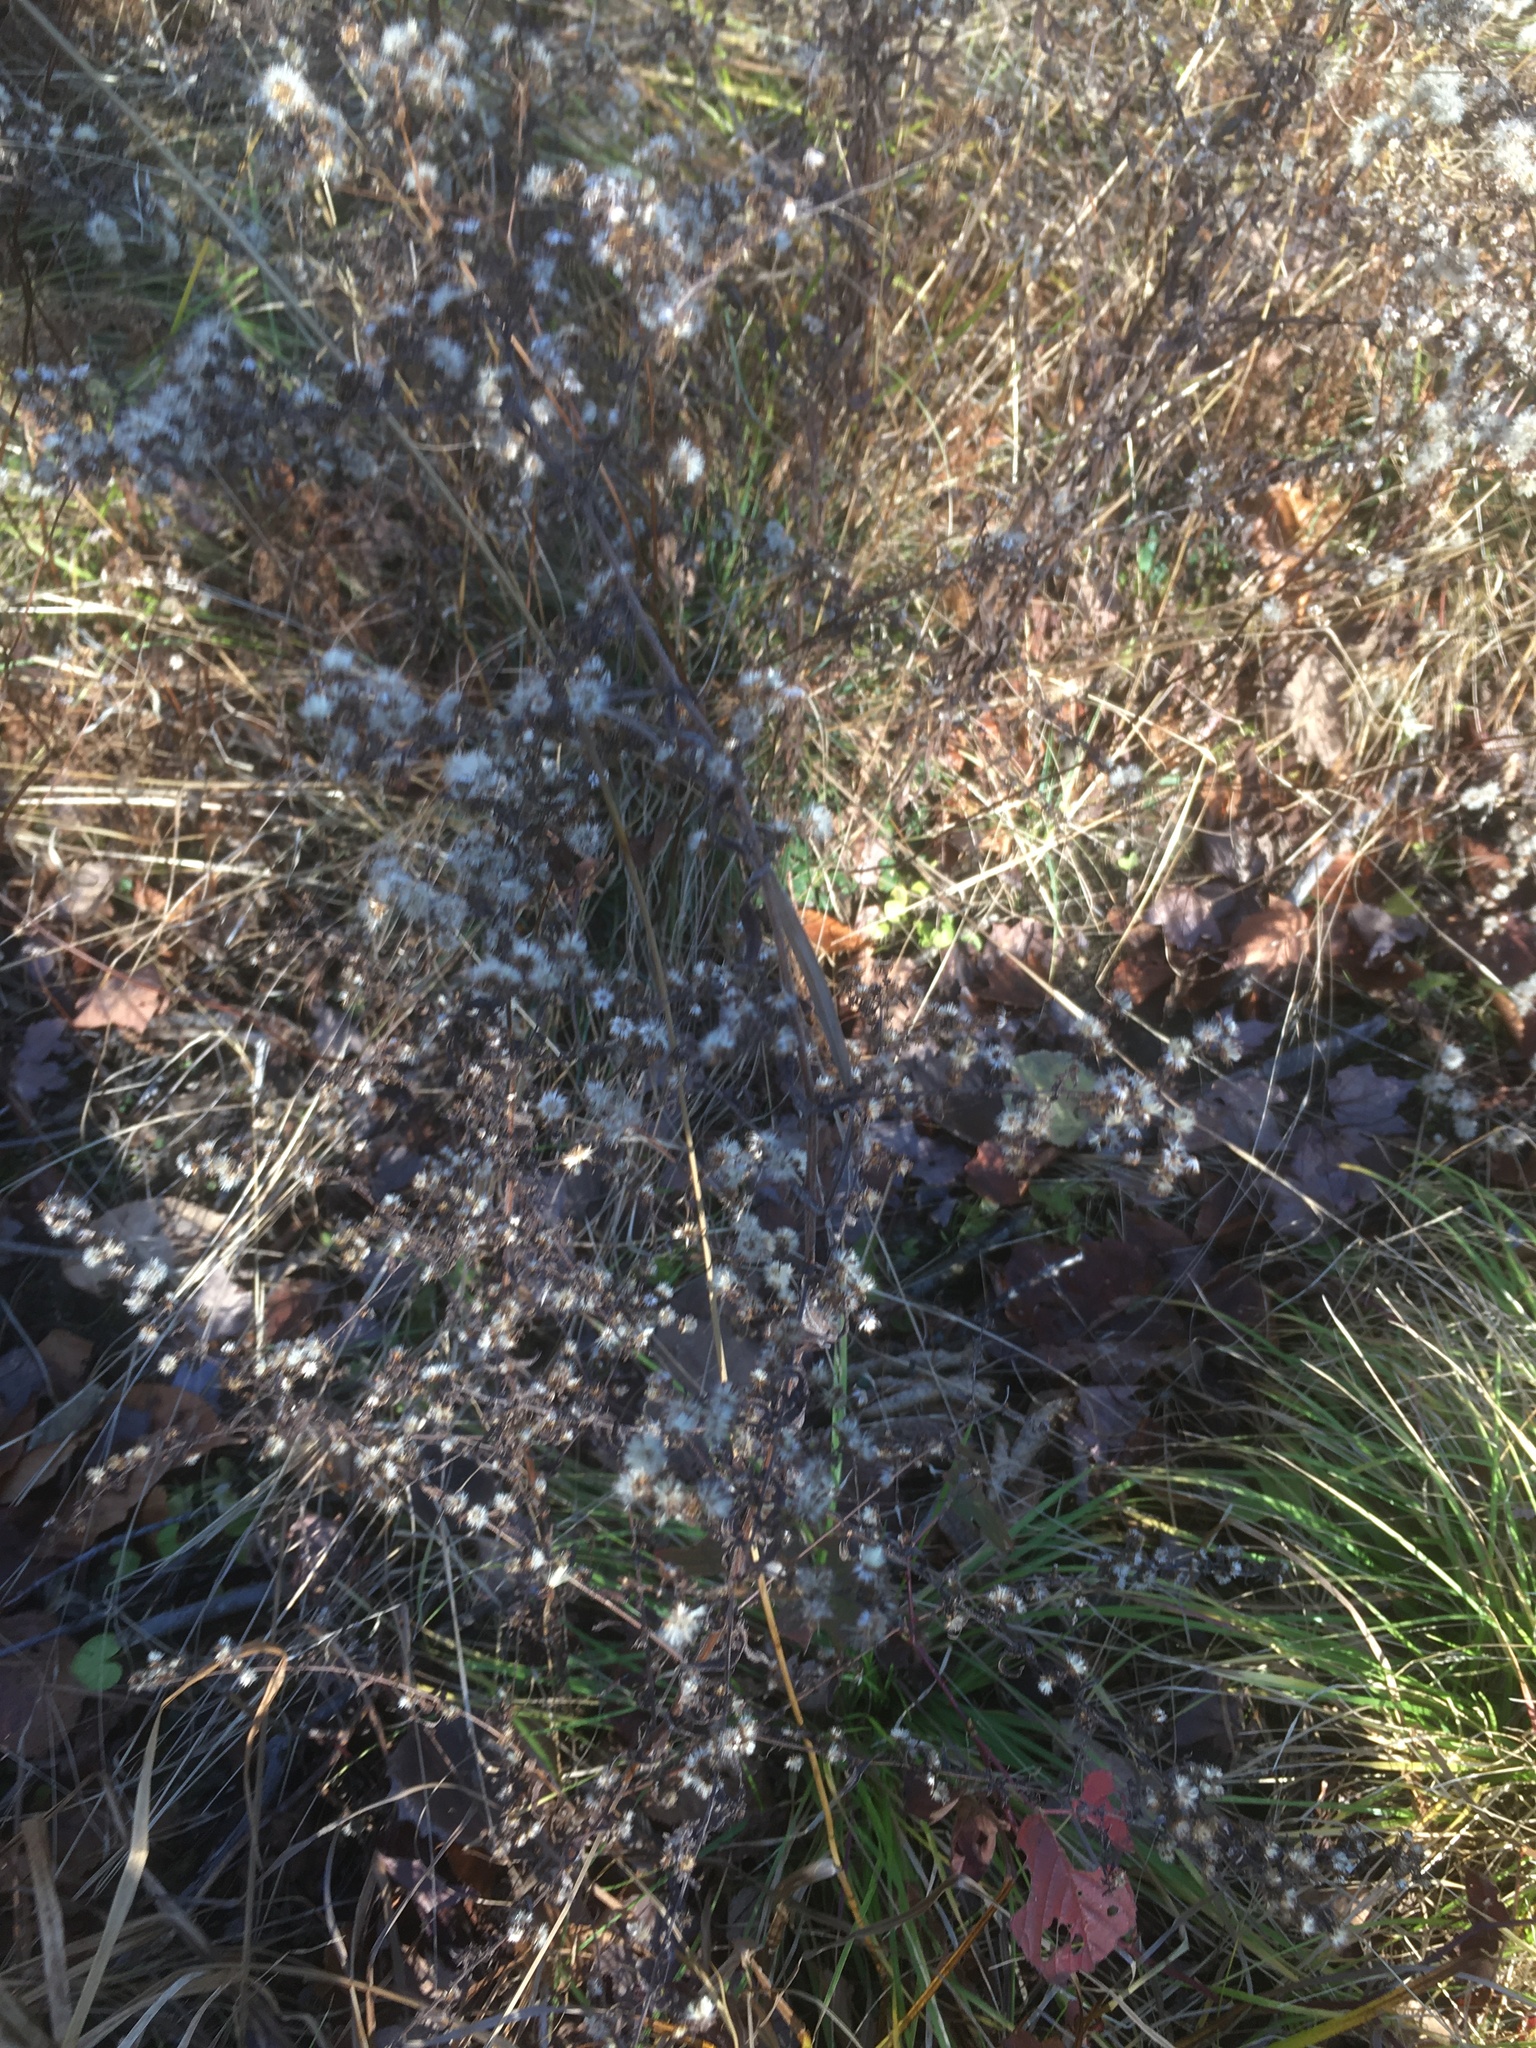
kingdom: Plantae
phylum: Tracheophyta
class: Magnoliopsida
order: Asterales
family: Asteraceae
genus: Symphyotrichum
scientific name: Symphyotrichum lateriflorum
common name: Calico aster
